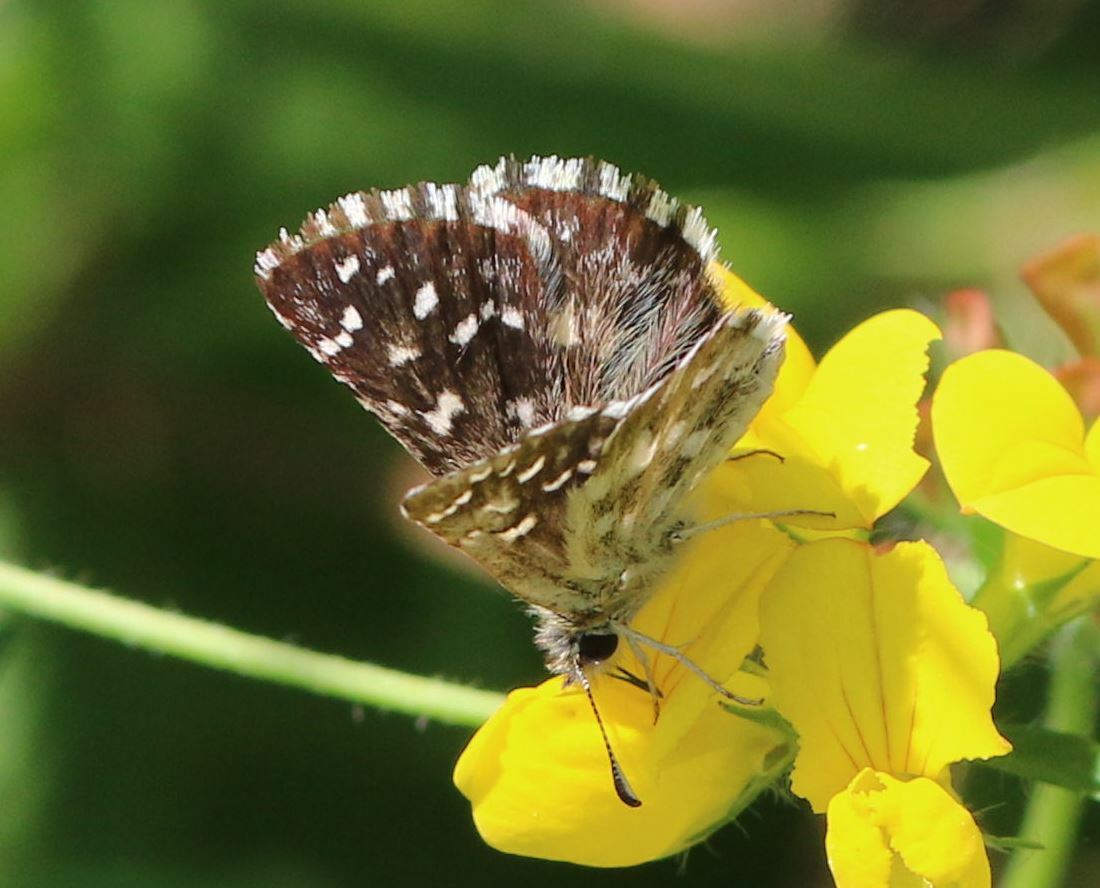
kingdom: Animalia
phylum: Arthropoda
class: Insecta
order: Lepidoptera
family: Hesperiidae
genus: Pyrgus
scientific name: Pyrgus malvoides
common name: Southern grizzled skipper
